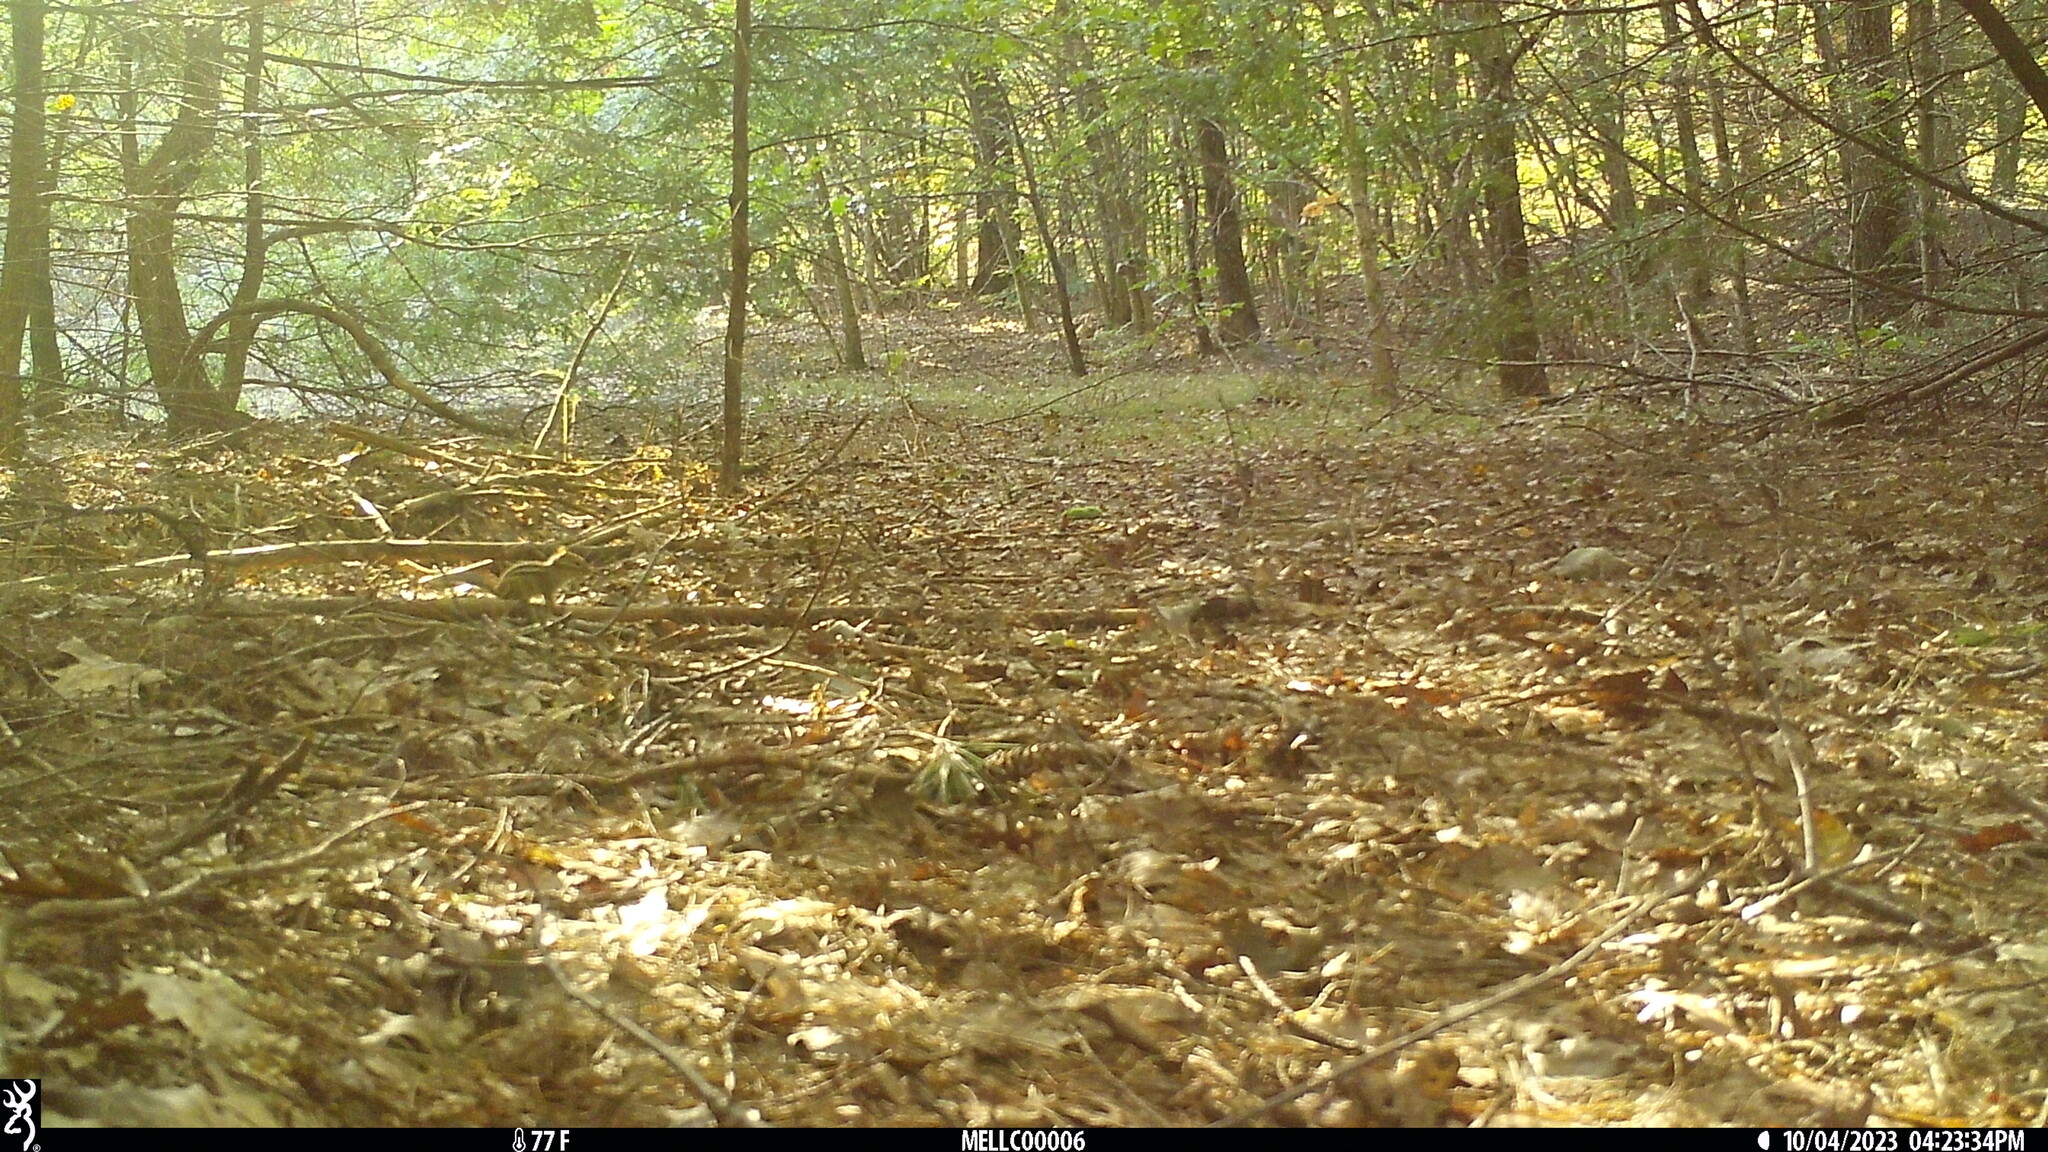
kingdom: Animalia
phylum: Chordata
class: Mammalia
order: Rodentia
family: Sciuridae
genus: Tamias
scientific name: Tamias striatus
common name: Eastern chipmunk
